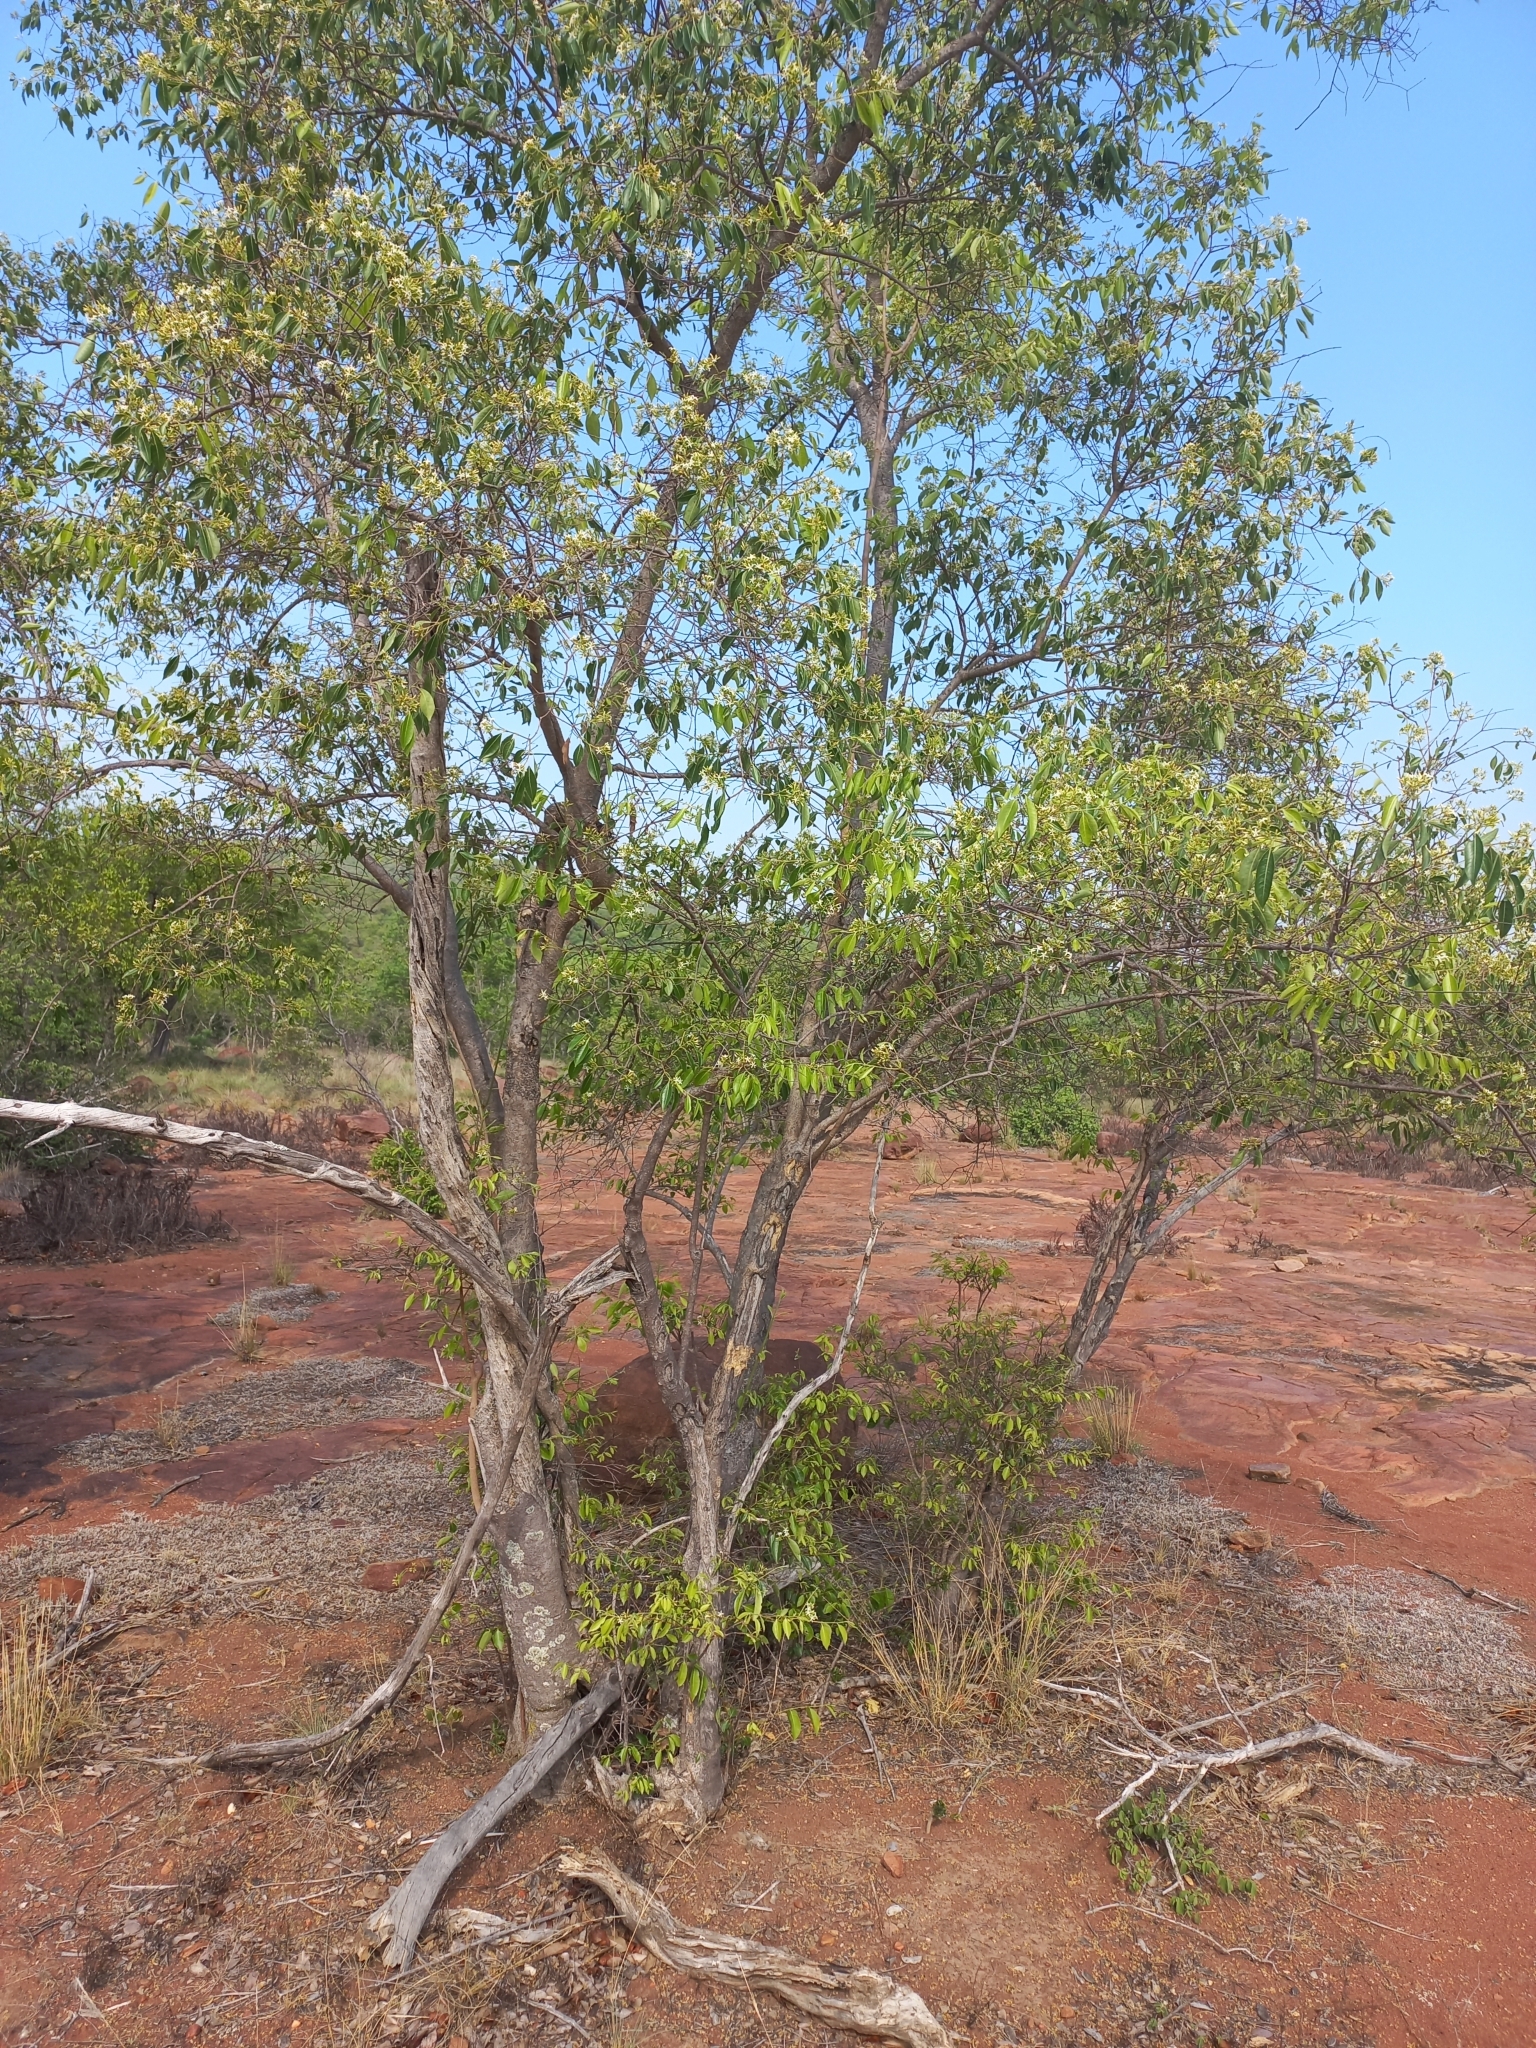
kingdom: Plantae
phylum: Tracheophyta
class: Magnoliopsida
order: Gentianales
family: Apocynaceae
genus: Diplorhynchus
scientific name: Diplorhynchus condylocarpon
